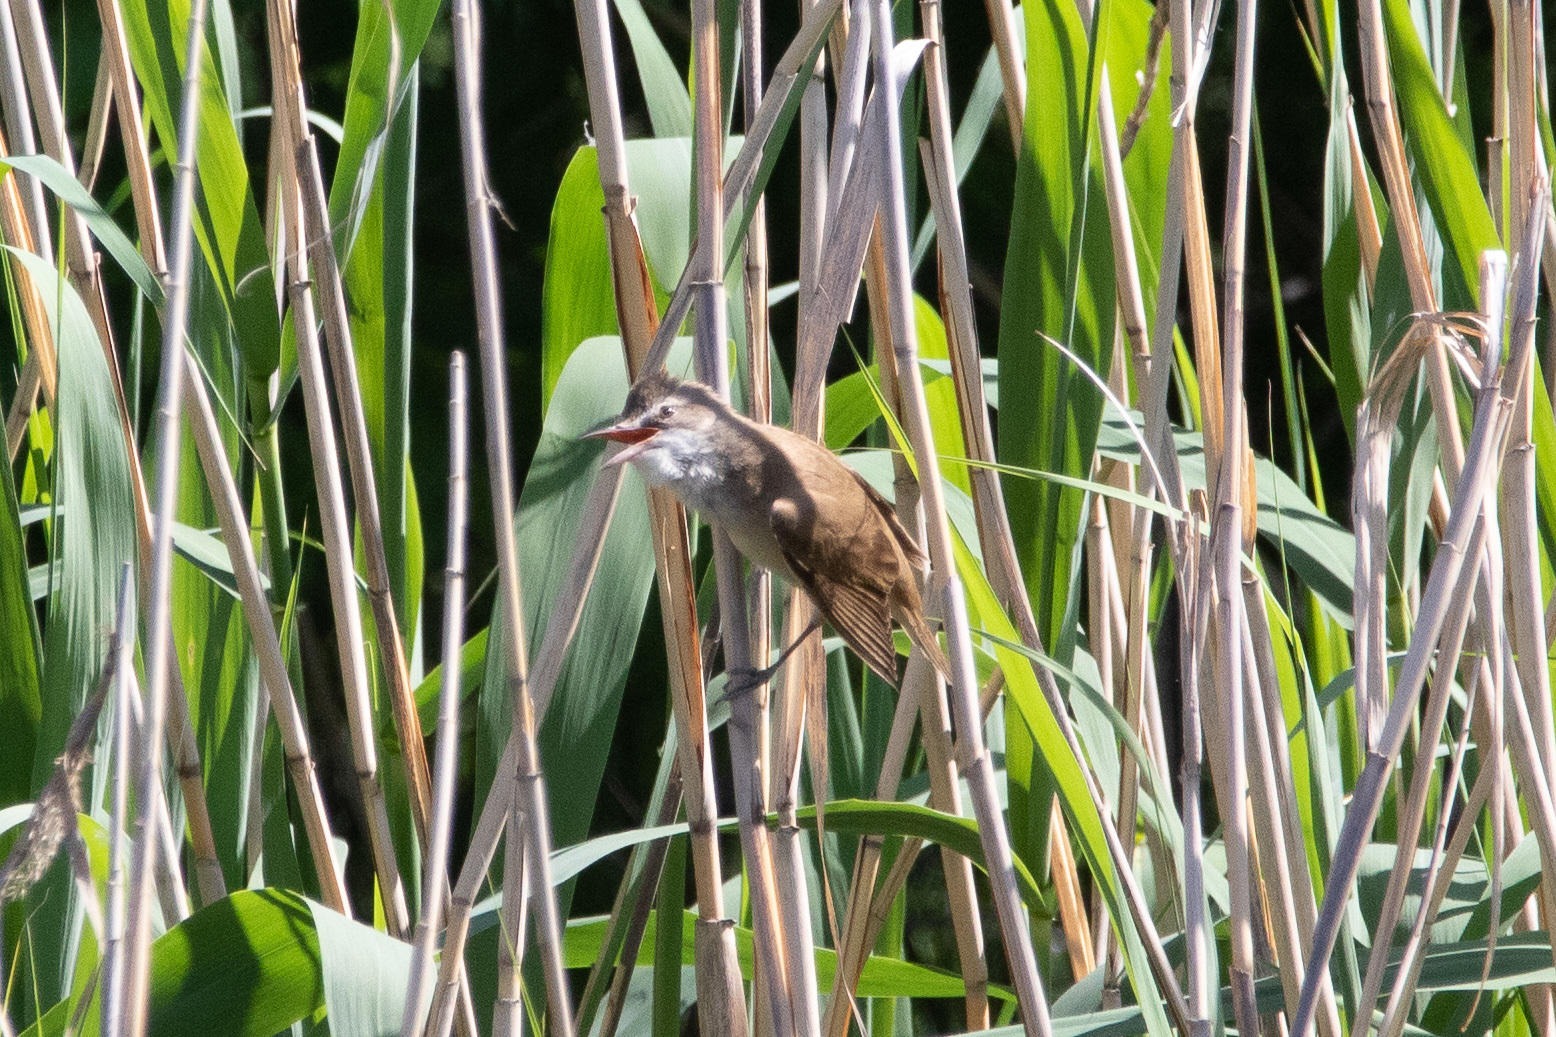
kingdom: Animalia
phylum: Chordata
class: Aves
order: Passeriformes
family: Acrocephalidae
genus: Acrocephalus
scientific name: Acrocephalus arundinaceus
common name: Great reed warbler
